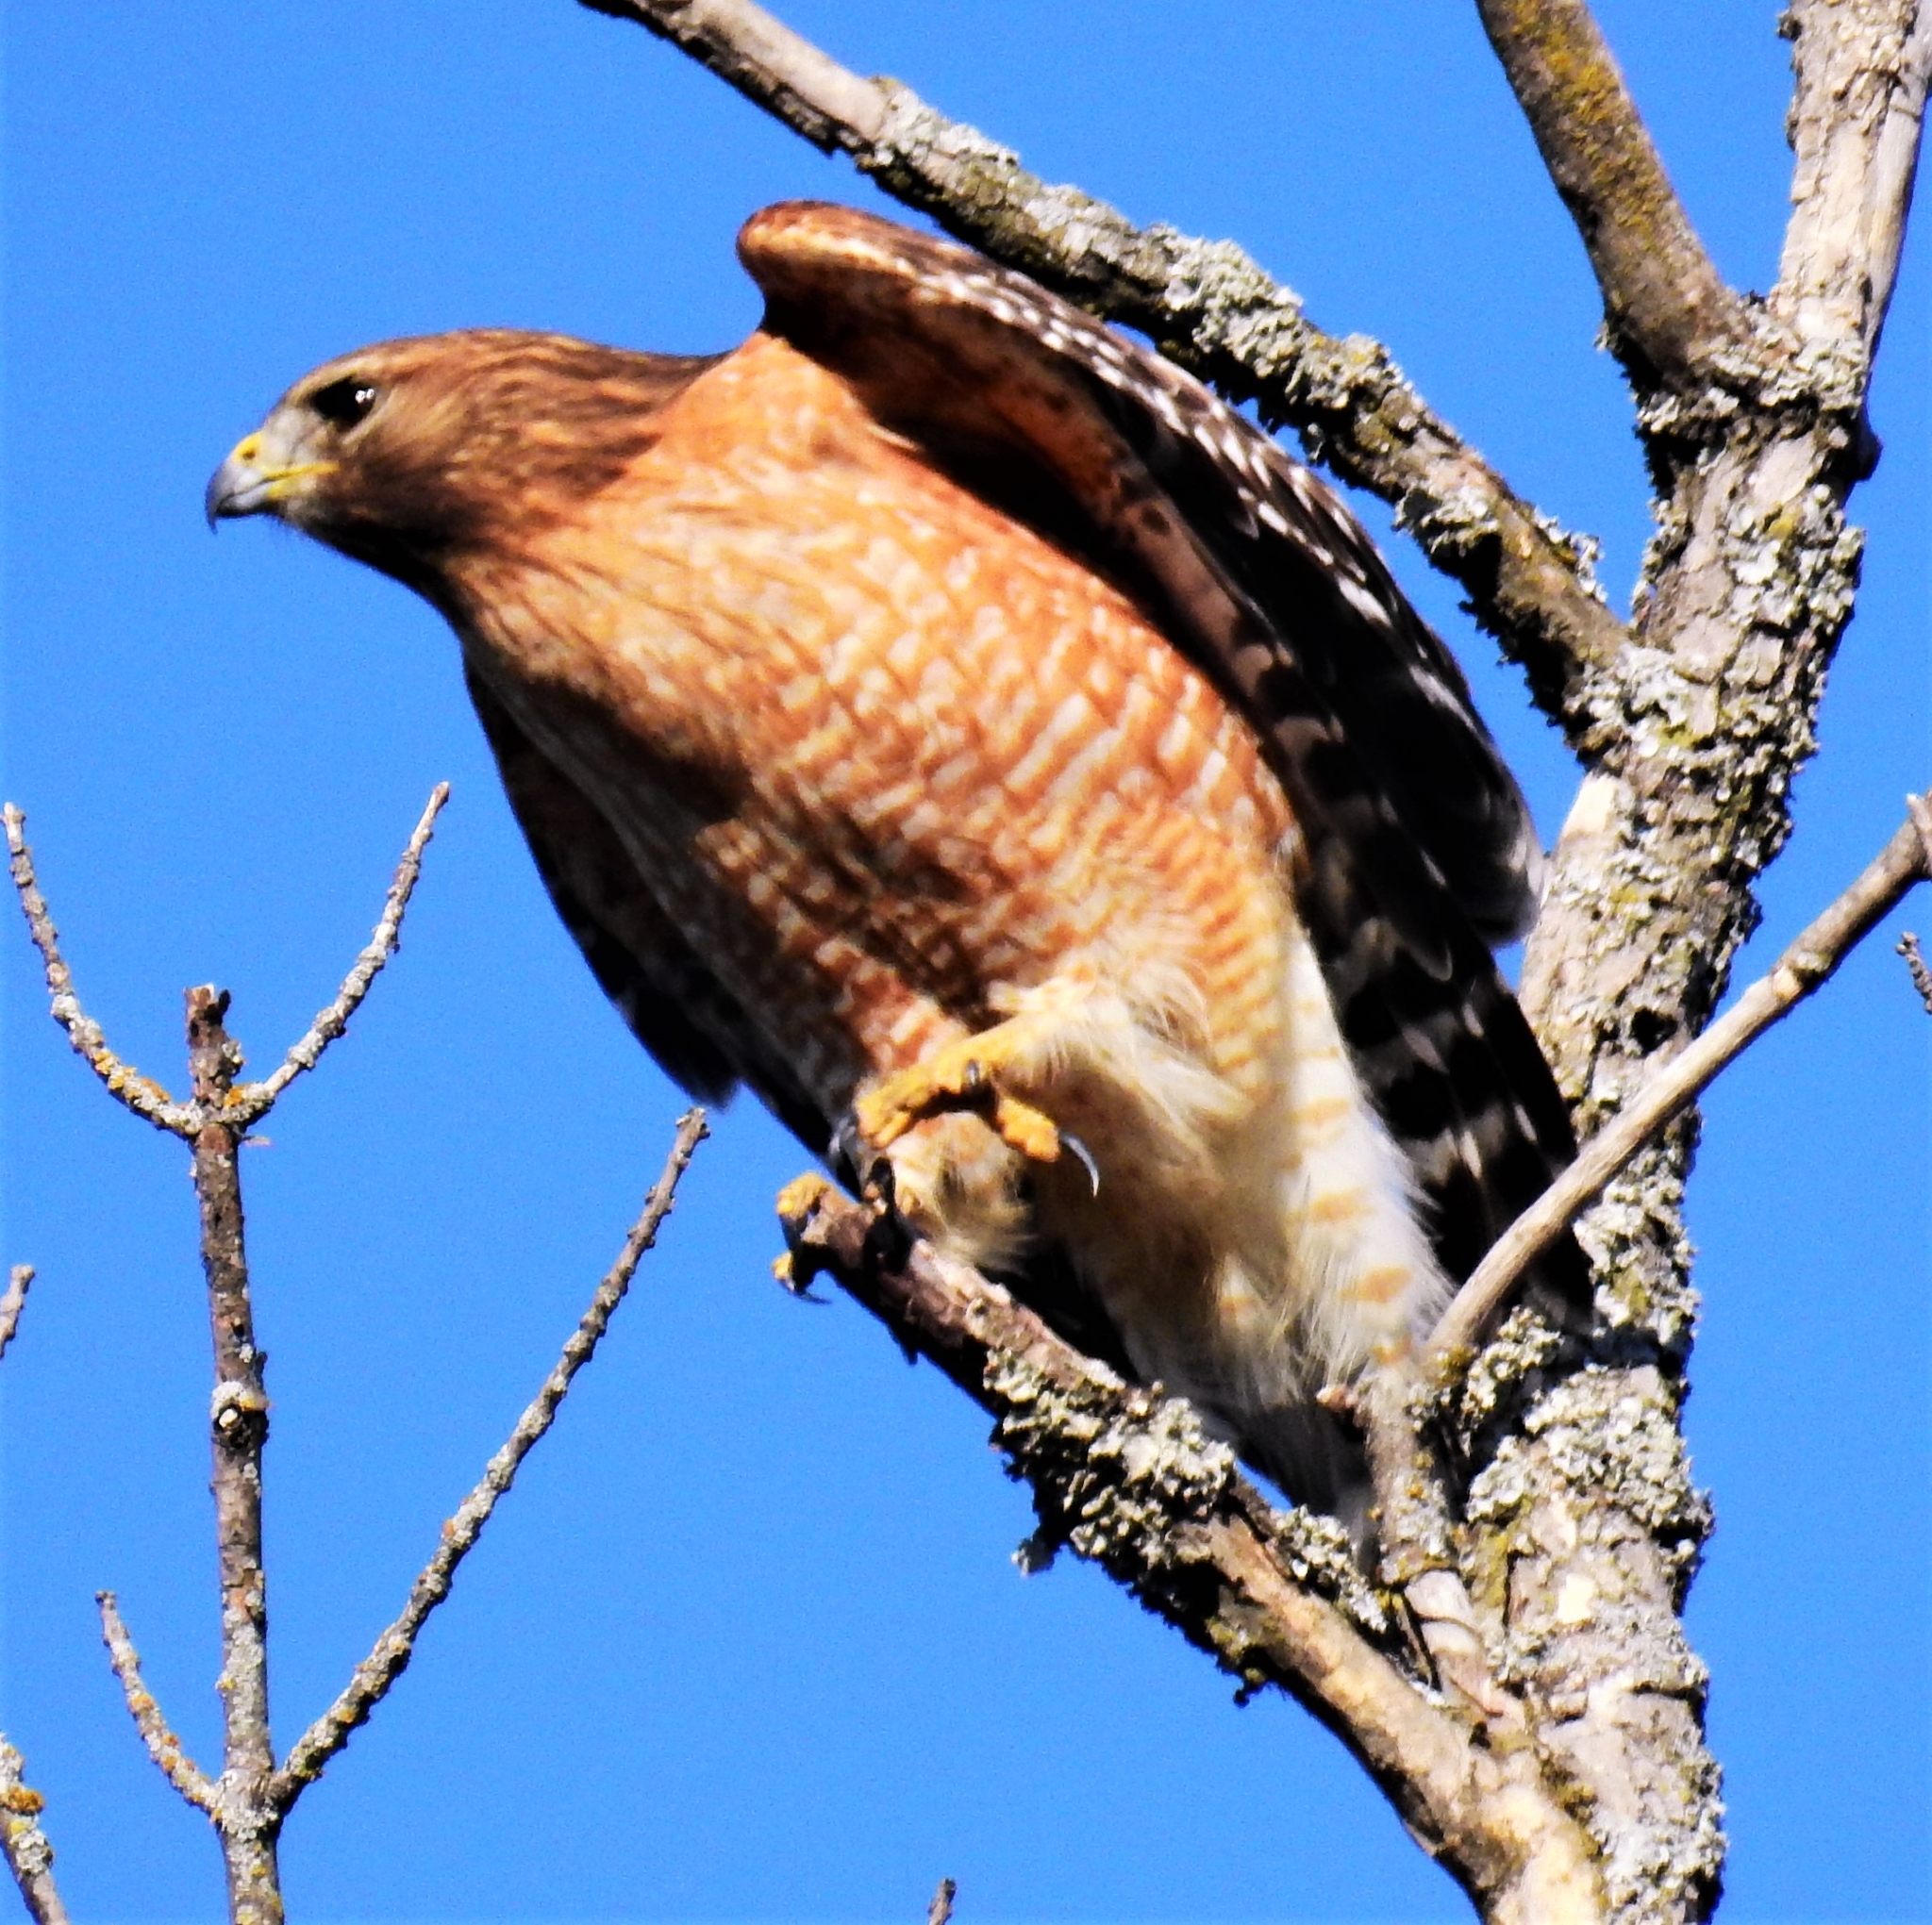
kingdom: Animalia
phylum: Chordata
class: Aves
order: Accipitriformes
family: Accipitridae
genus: Buteo
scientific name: Buteo lineatus
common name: Red-shouldered hawk
